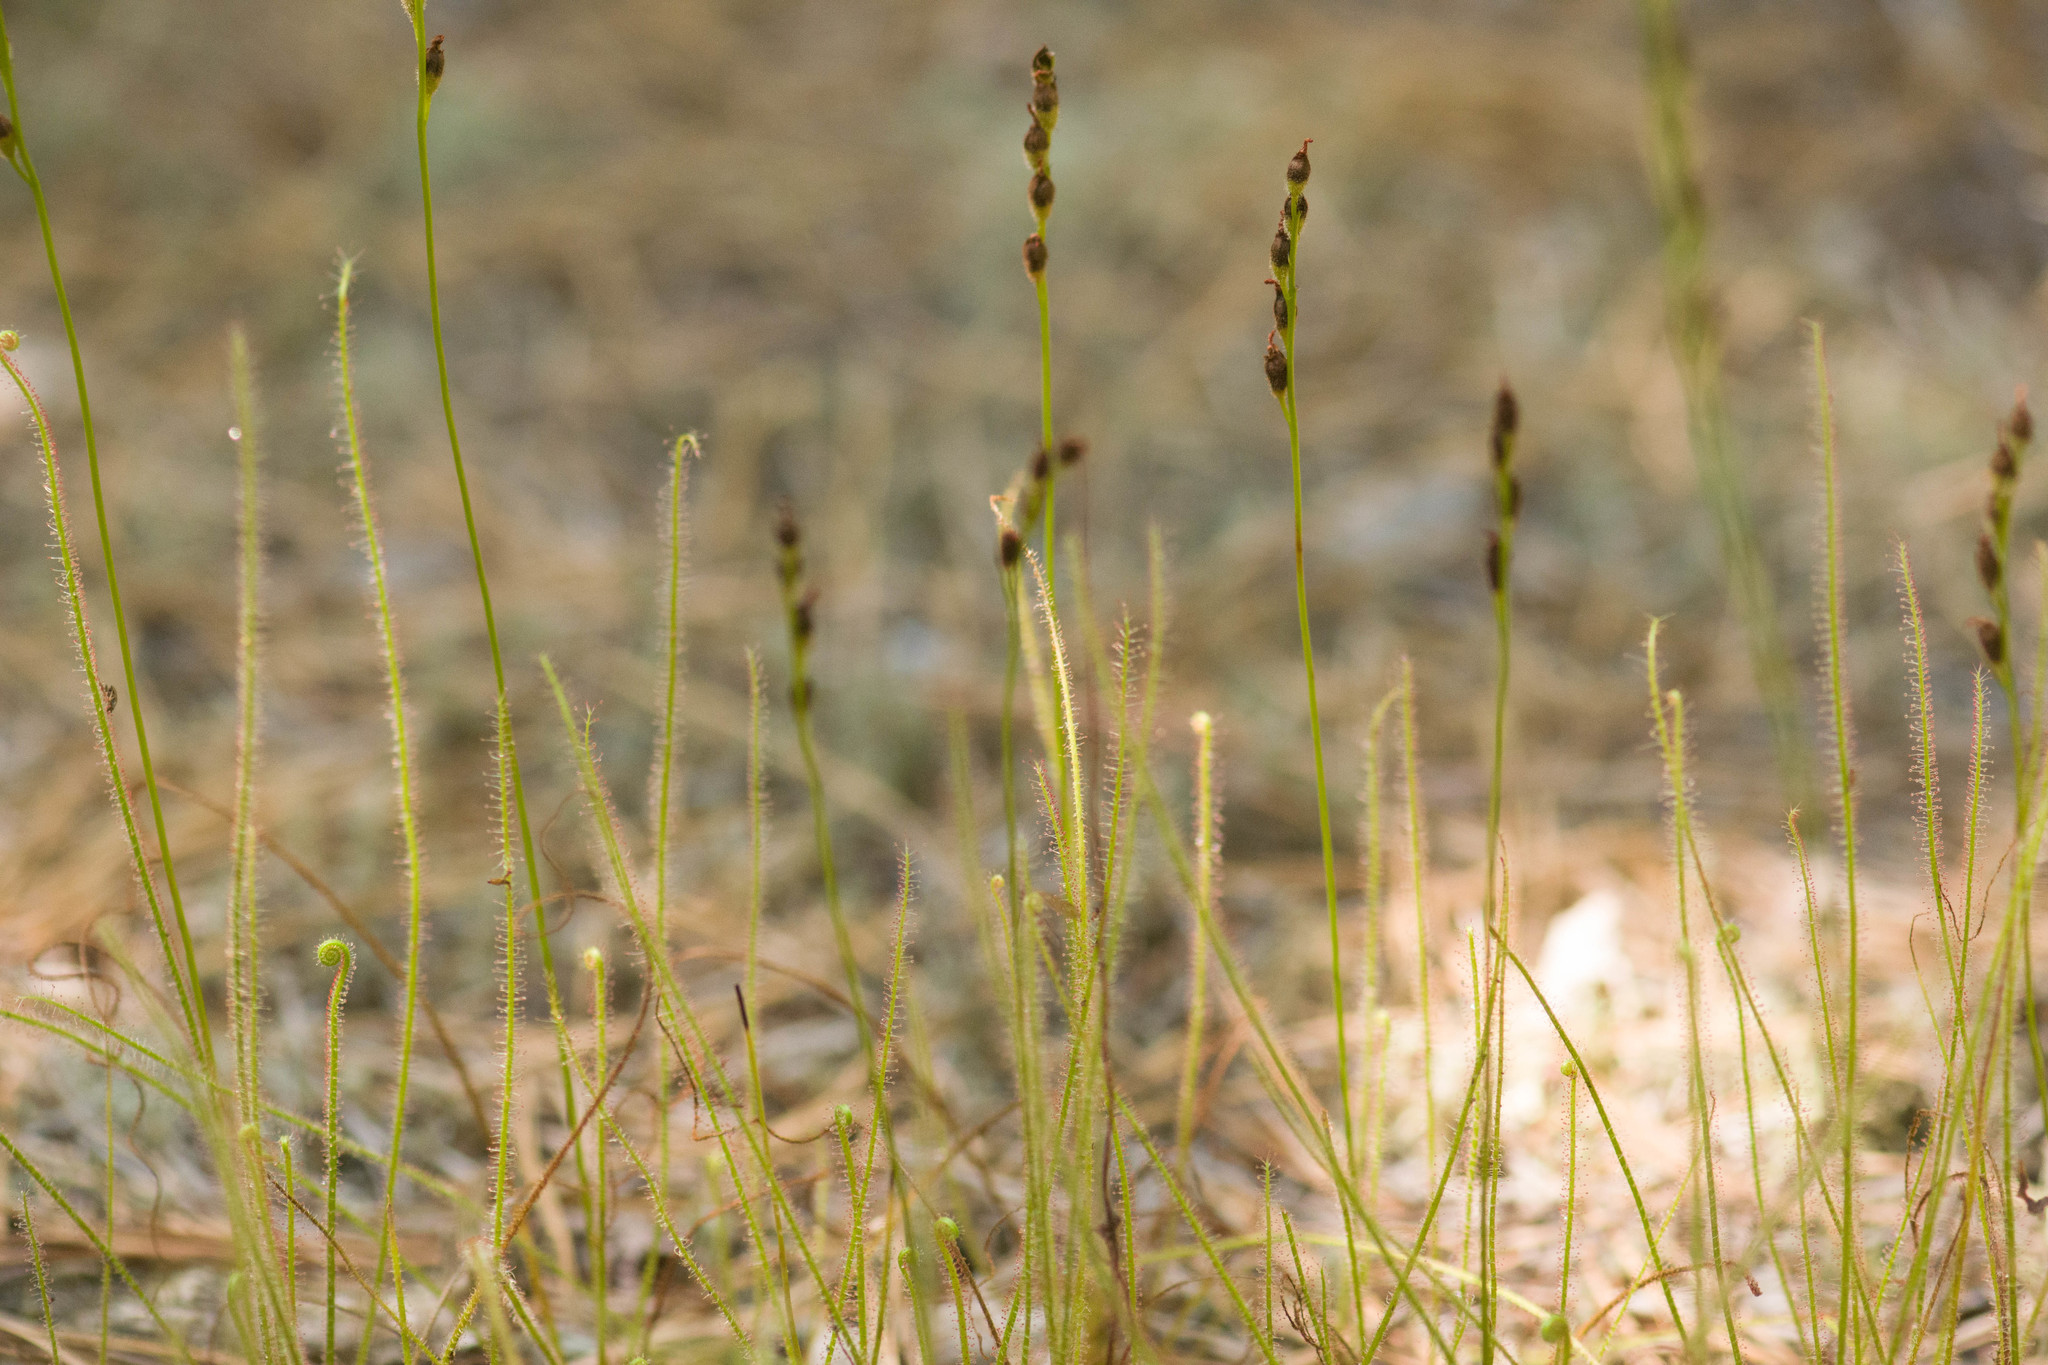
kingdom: Plantae
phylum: Tracheophyta
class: Magnoliopsida
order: Caryophyllales
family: Droseraceae
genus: Drosera
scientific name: Drosera filiformis
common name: Dew-thread
